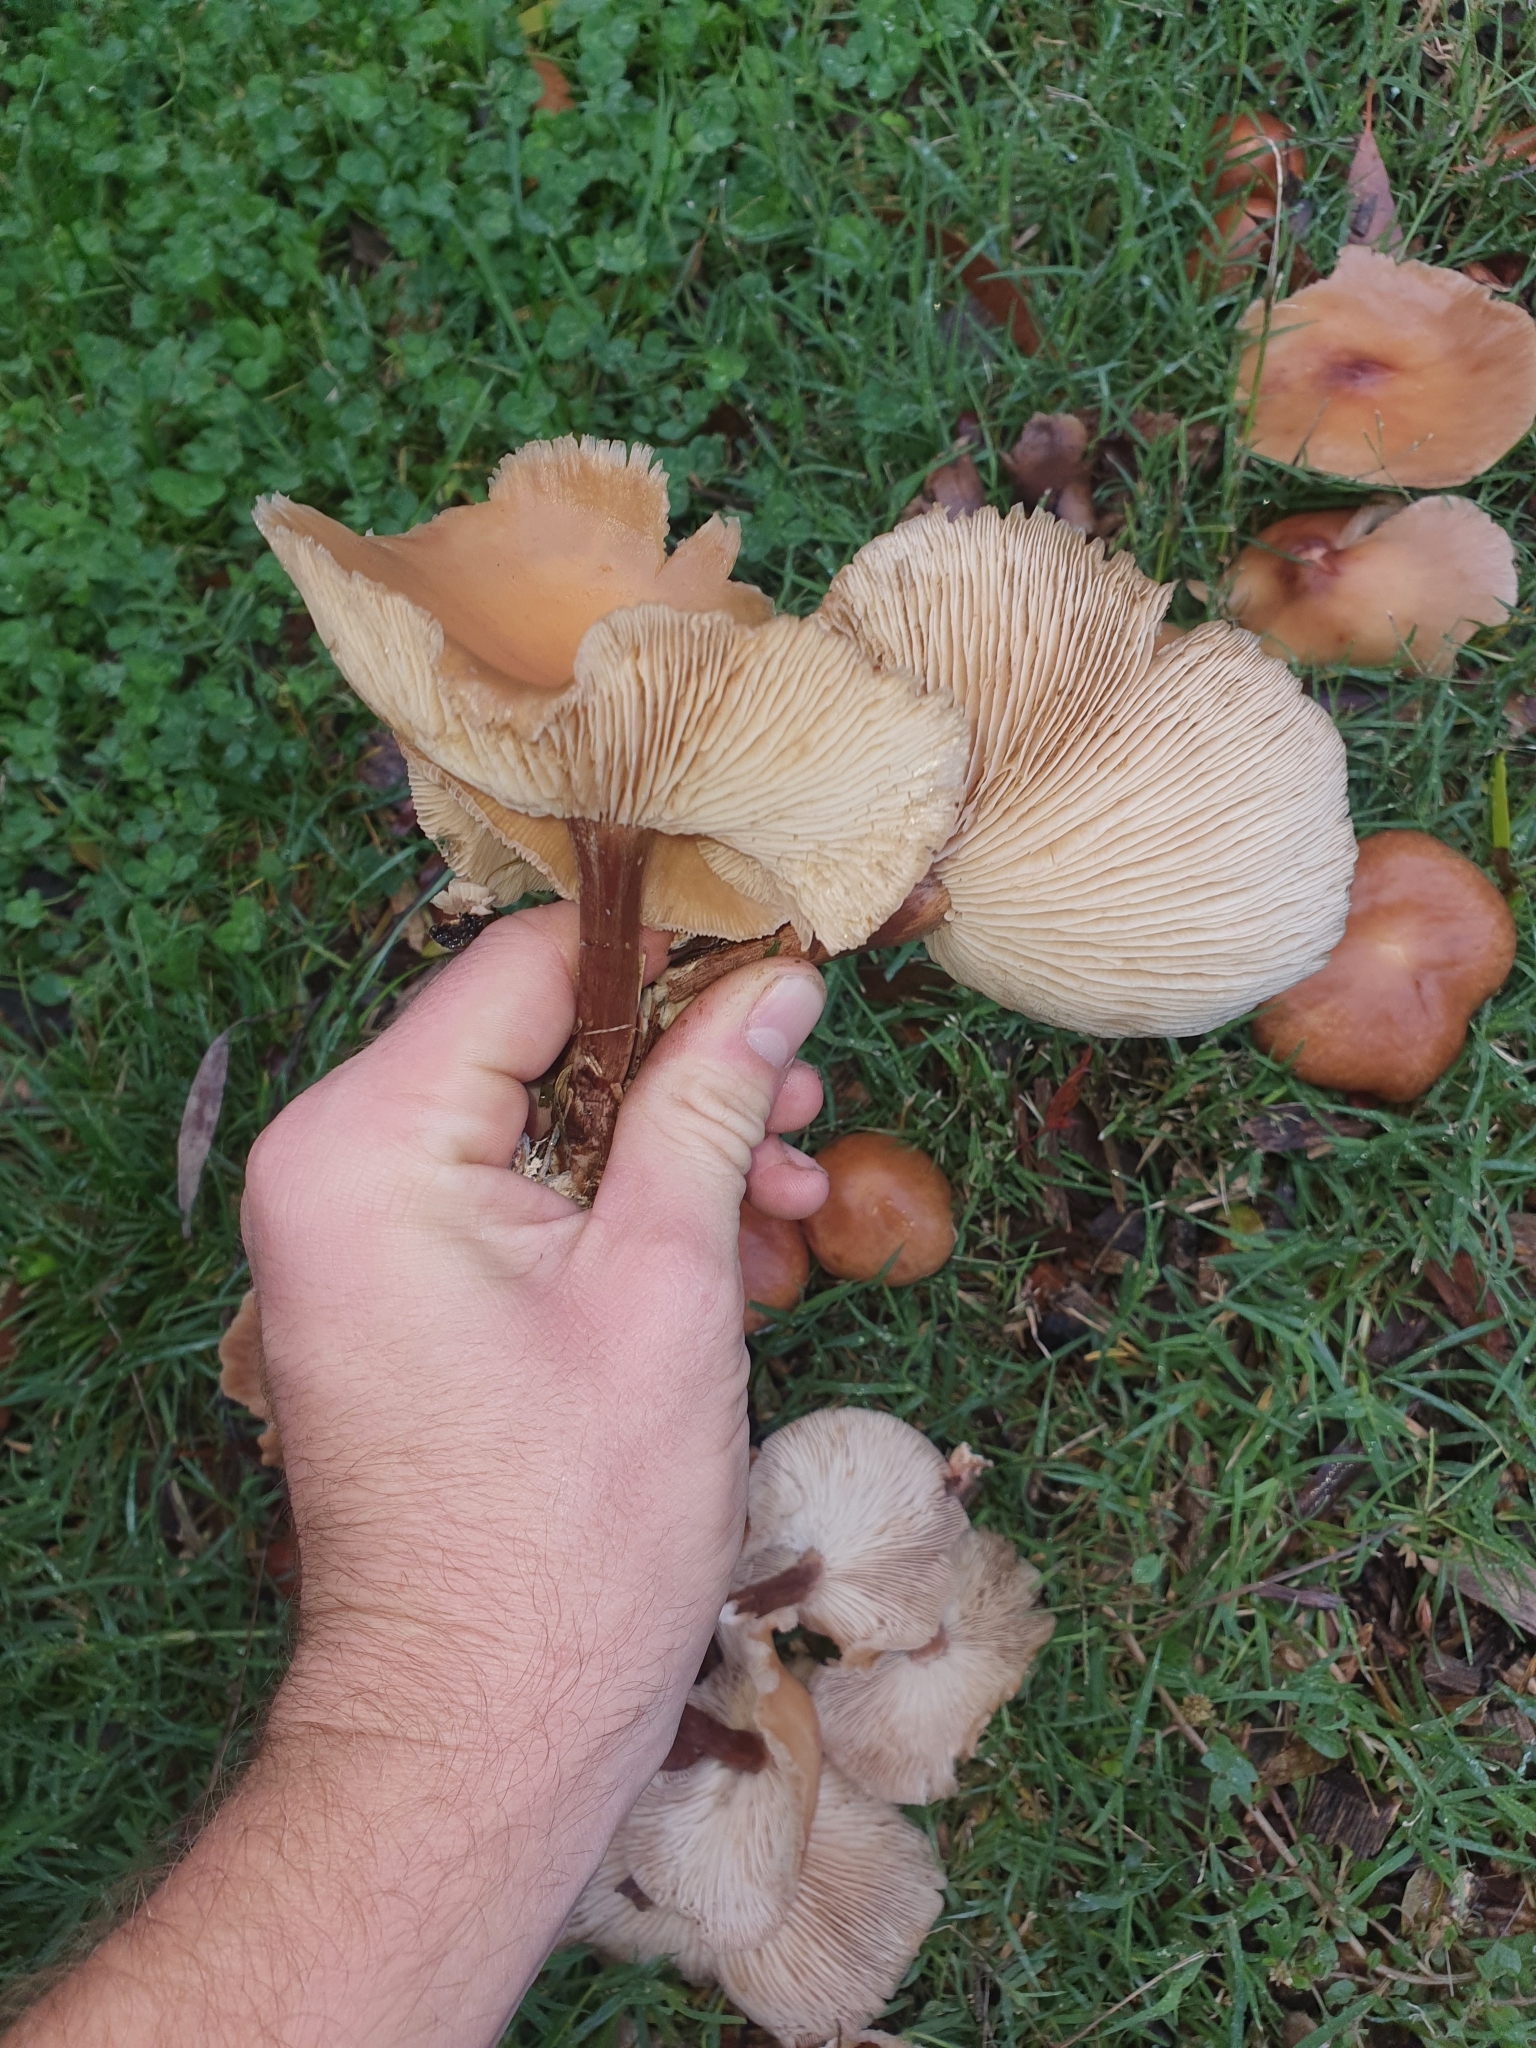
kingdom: Fungi
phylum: Basidiomycota
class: Agaricomycetes
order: Agaricales
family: Omphalotaceae
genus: Collybiopsis
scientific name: Collybiopsis luxurians
